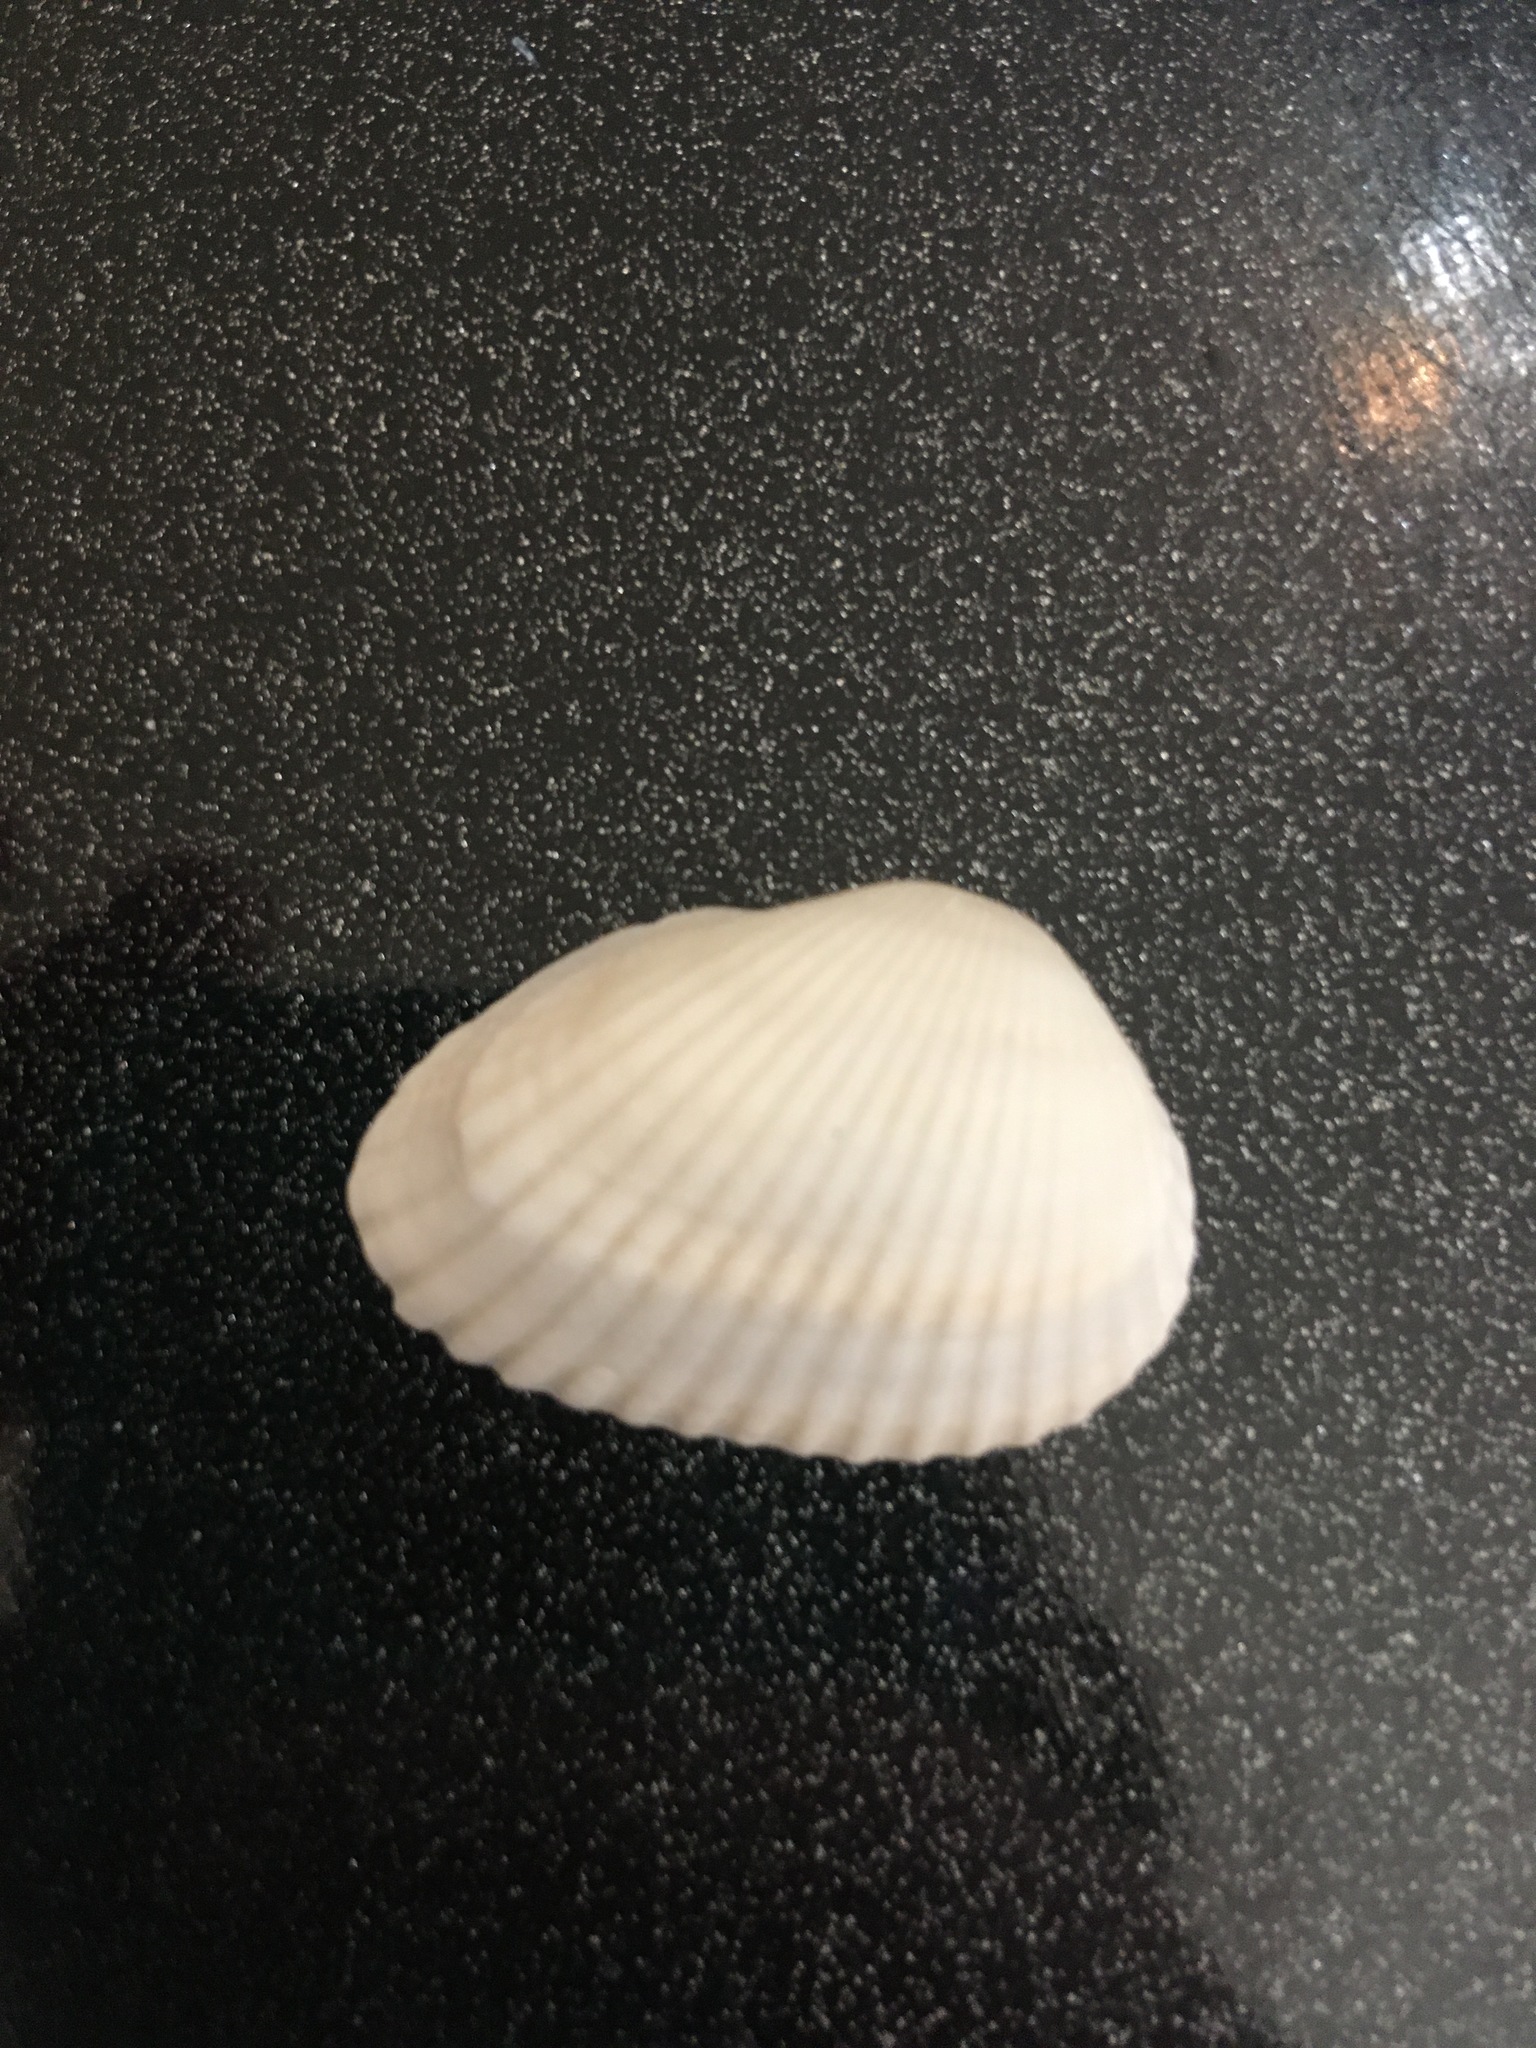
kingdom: Animalia
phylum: Mollusca
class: Bivalvia
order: Arcida
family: Arcidae
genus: Anadara
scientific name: Anadara transversa
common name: Transverse ark
